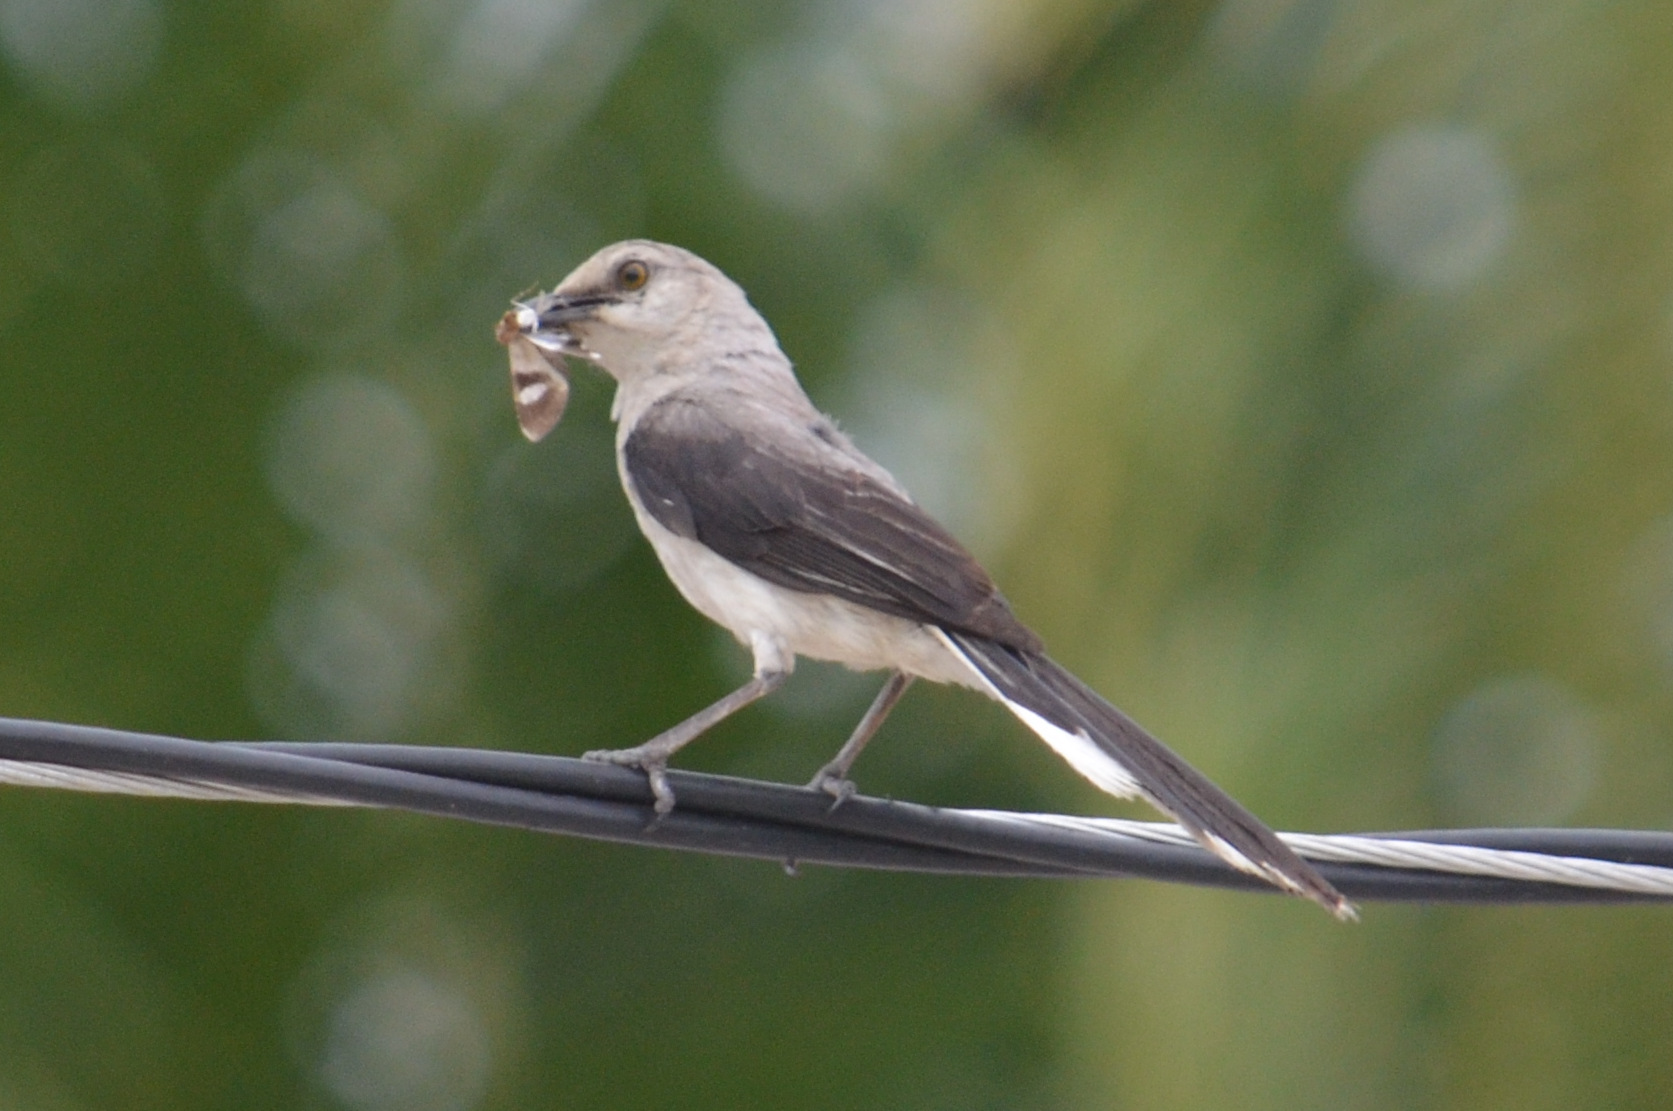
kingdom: Animalia
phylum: Chordata
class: Aves
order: Passeriformes
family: Mimidae
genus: Mimus
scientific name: Mimus gilvus
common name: Tropical mockingbird
